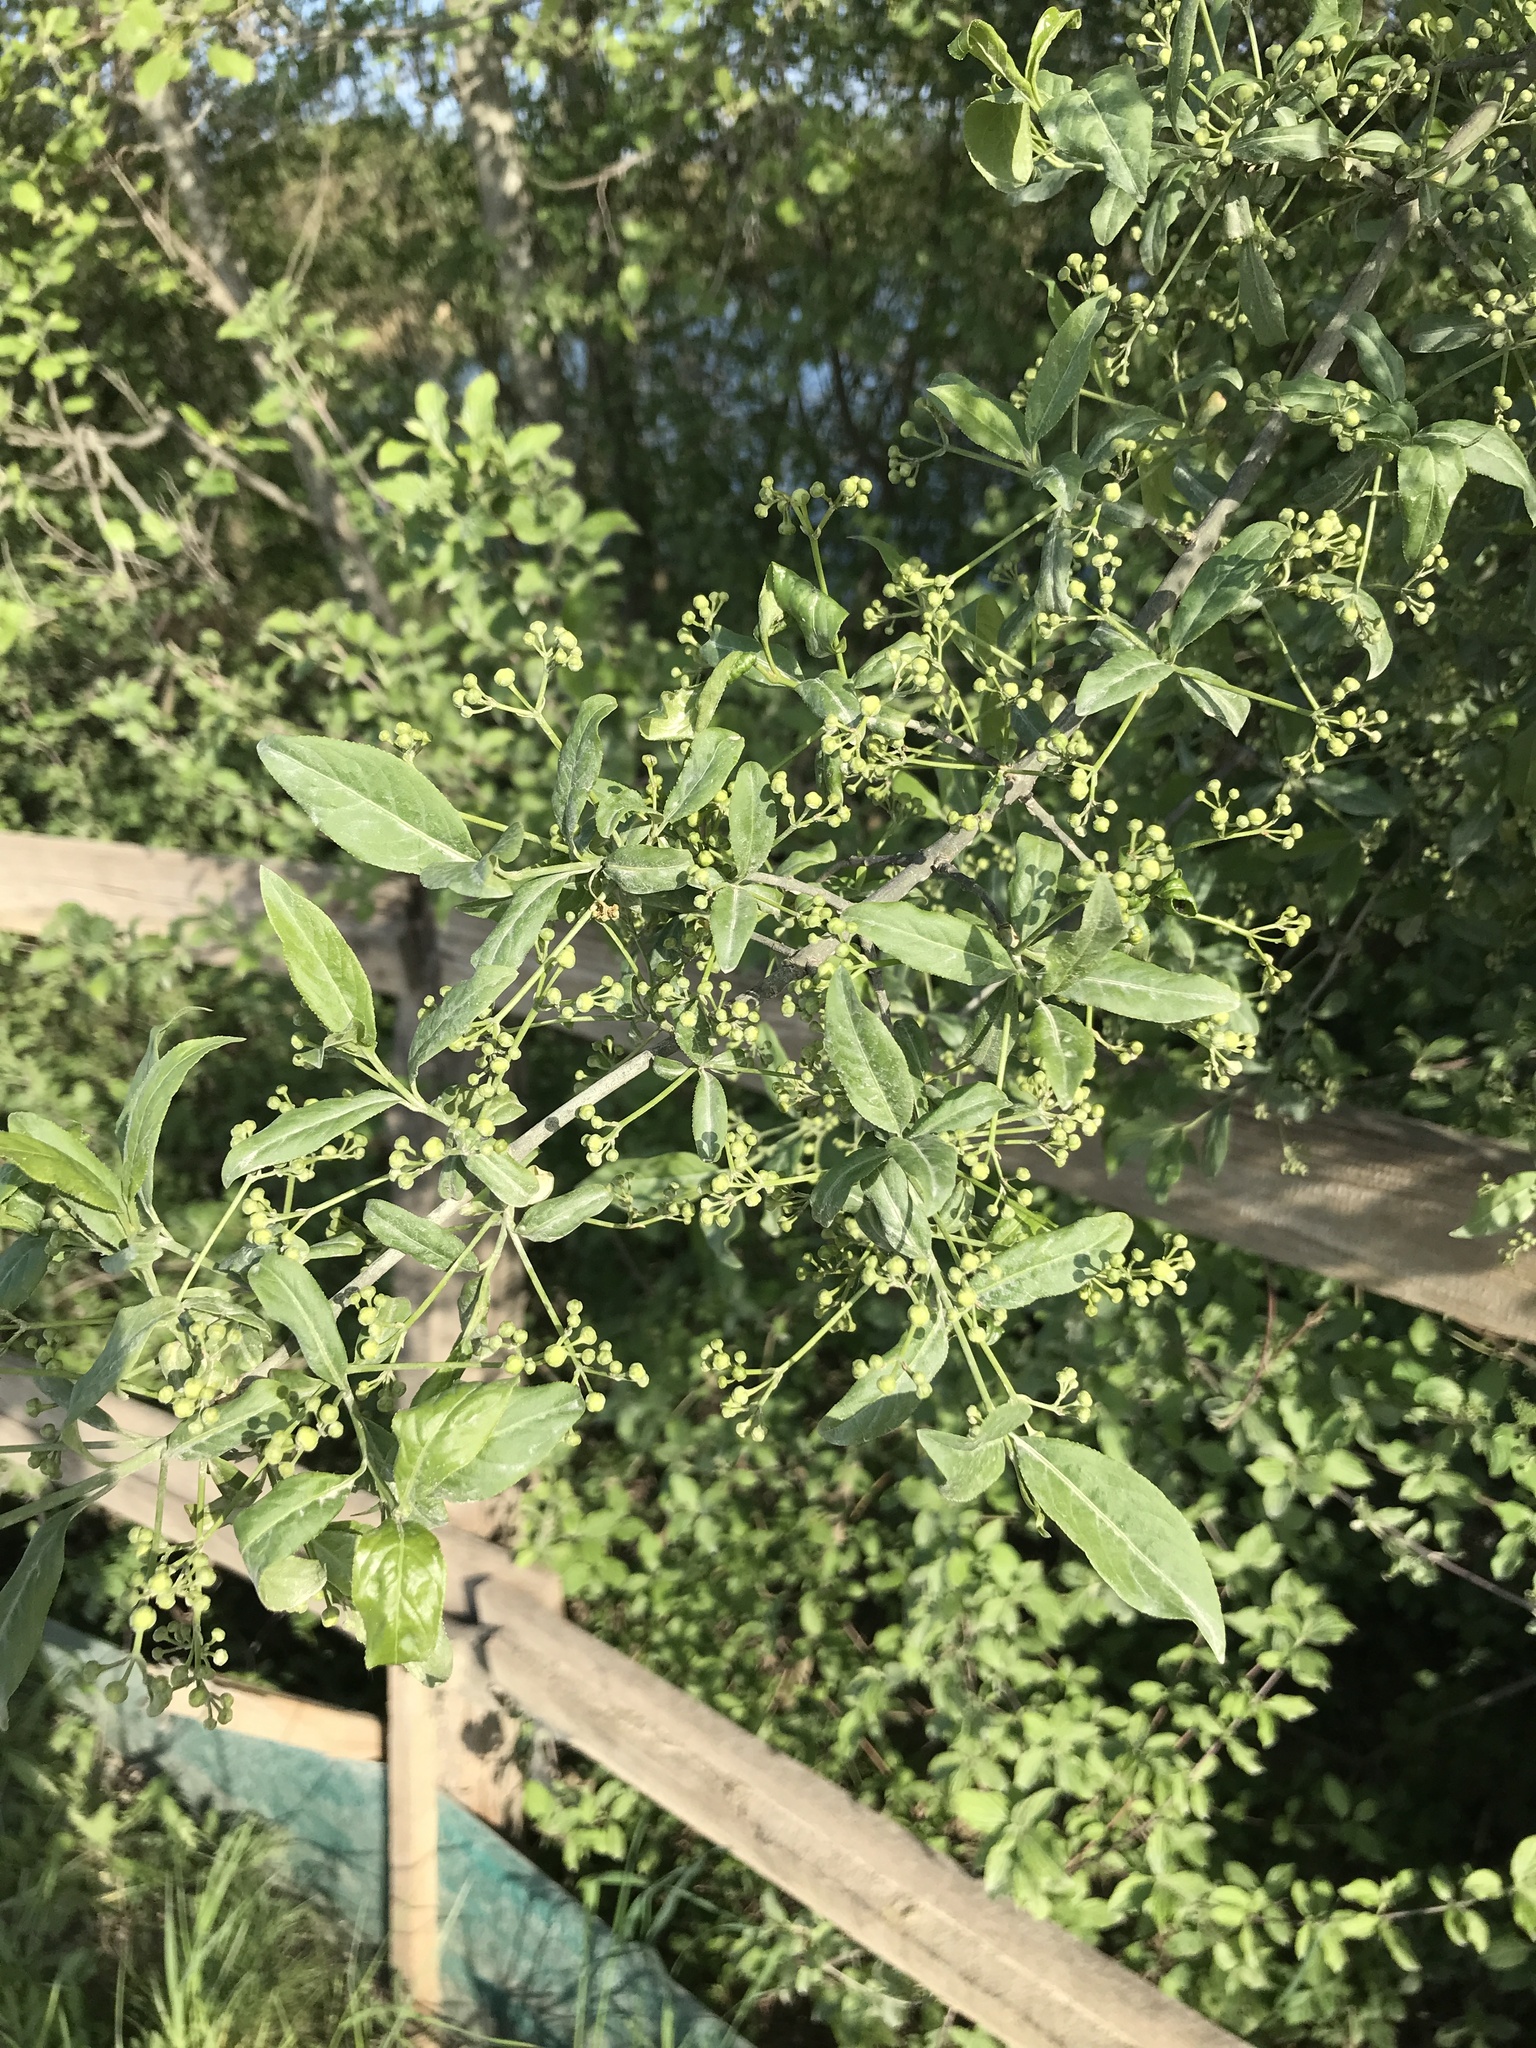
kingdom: Plantae
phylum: Tracheophyta
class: Magnoliopsida
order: Celastrales
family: Celastraceae
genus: Euonymus
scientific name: Euonymus europaeus
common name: Spindle
